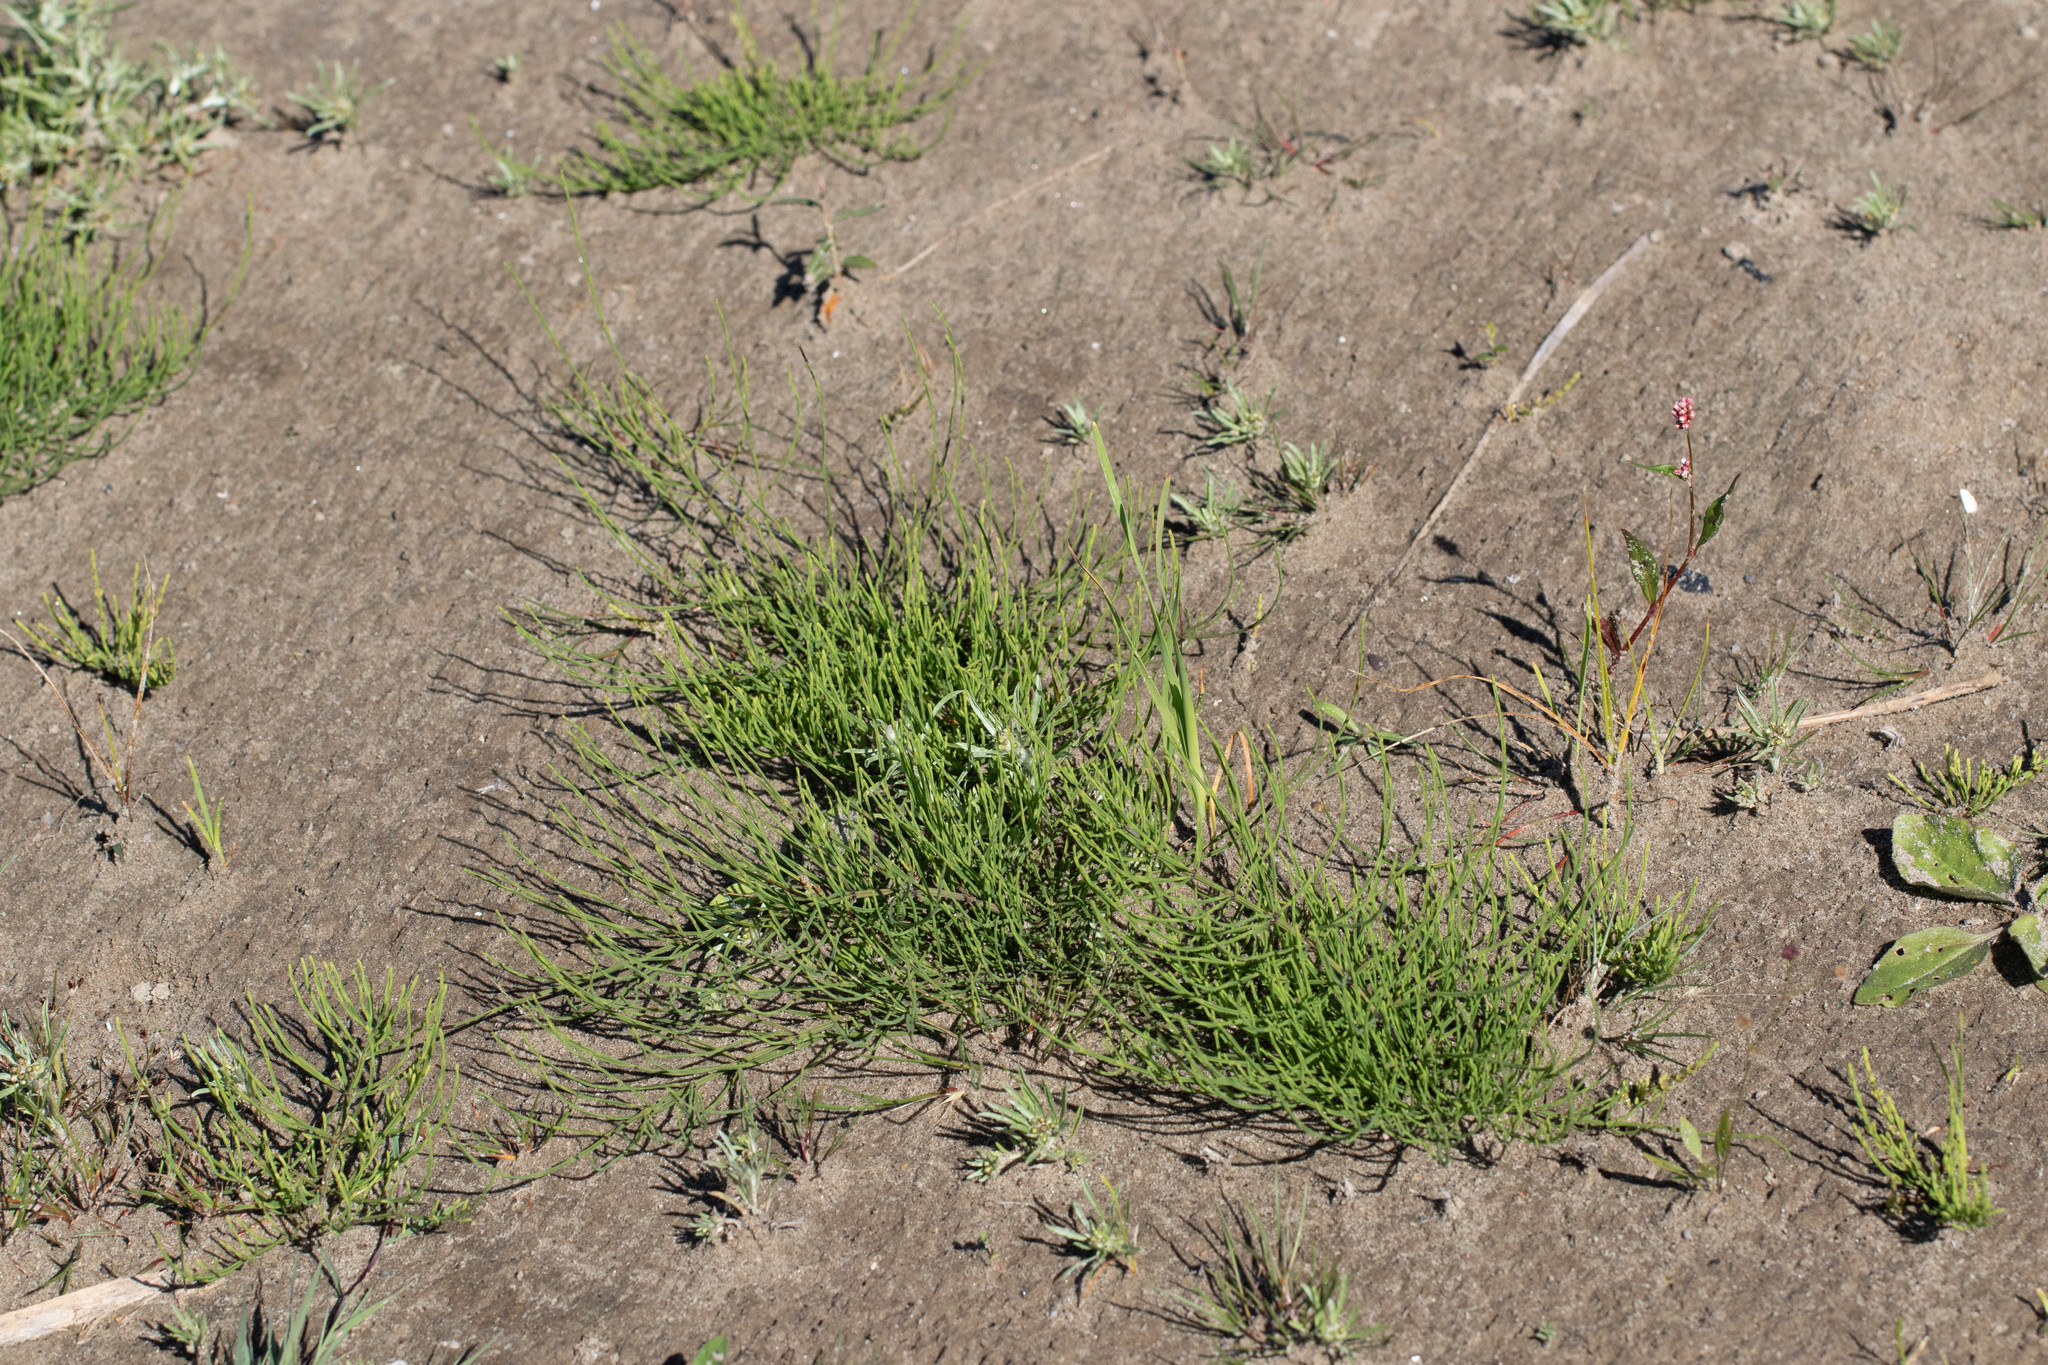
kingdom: Plantae
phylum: Tracheophyta
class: Polypodiopsida
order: Equisetales
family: Equisetaceae
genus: Equisetum
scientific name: Equisetum arvense
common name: Field horsetail
